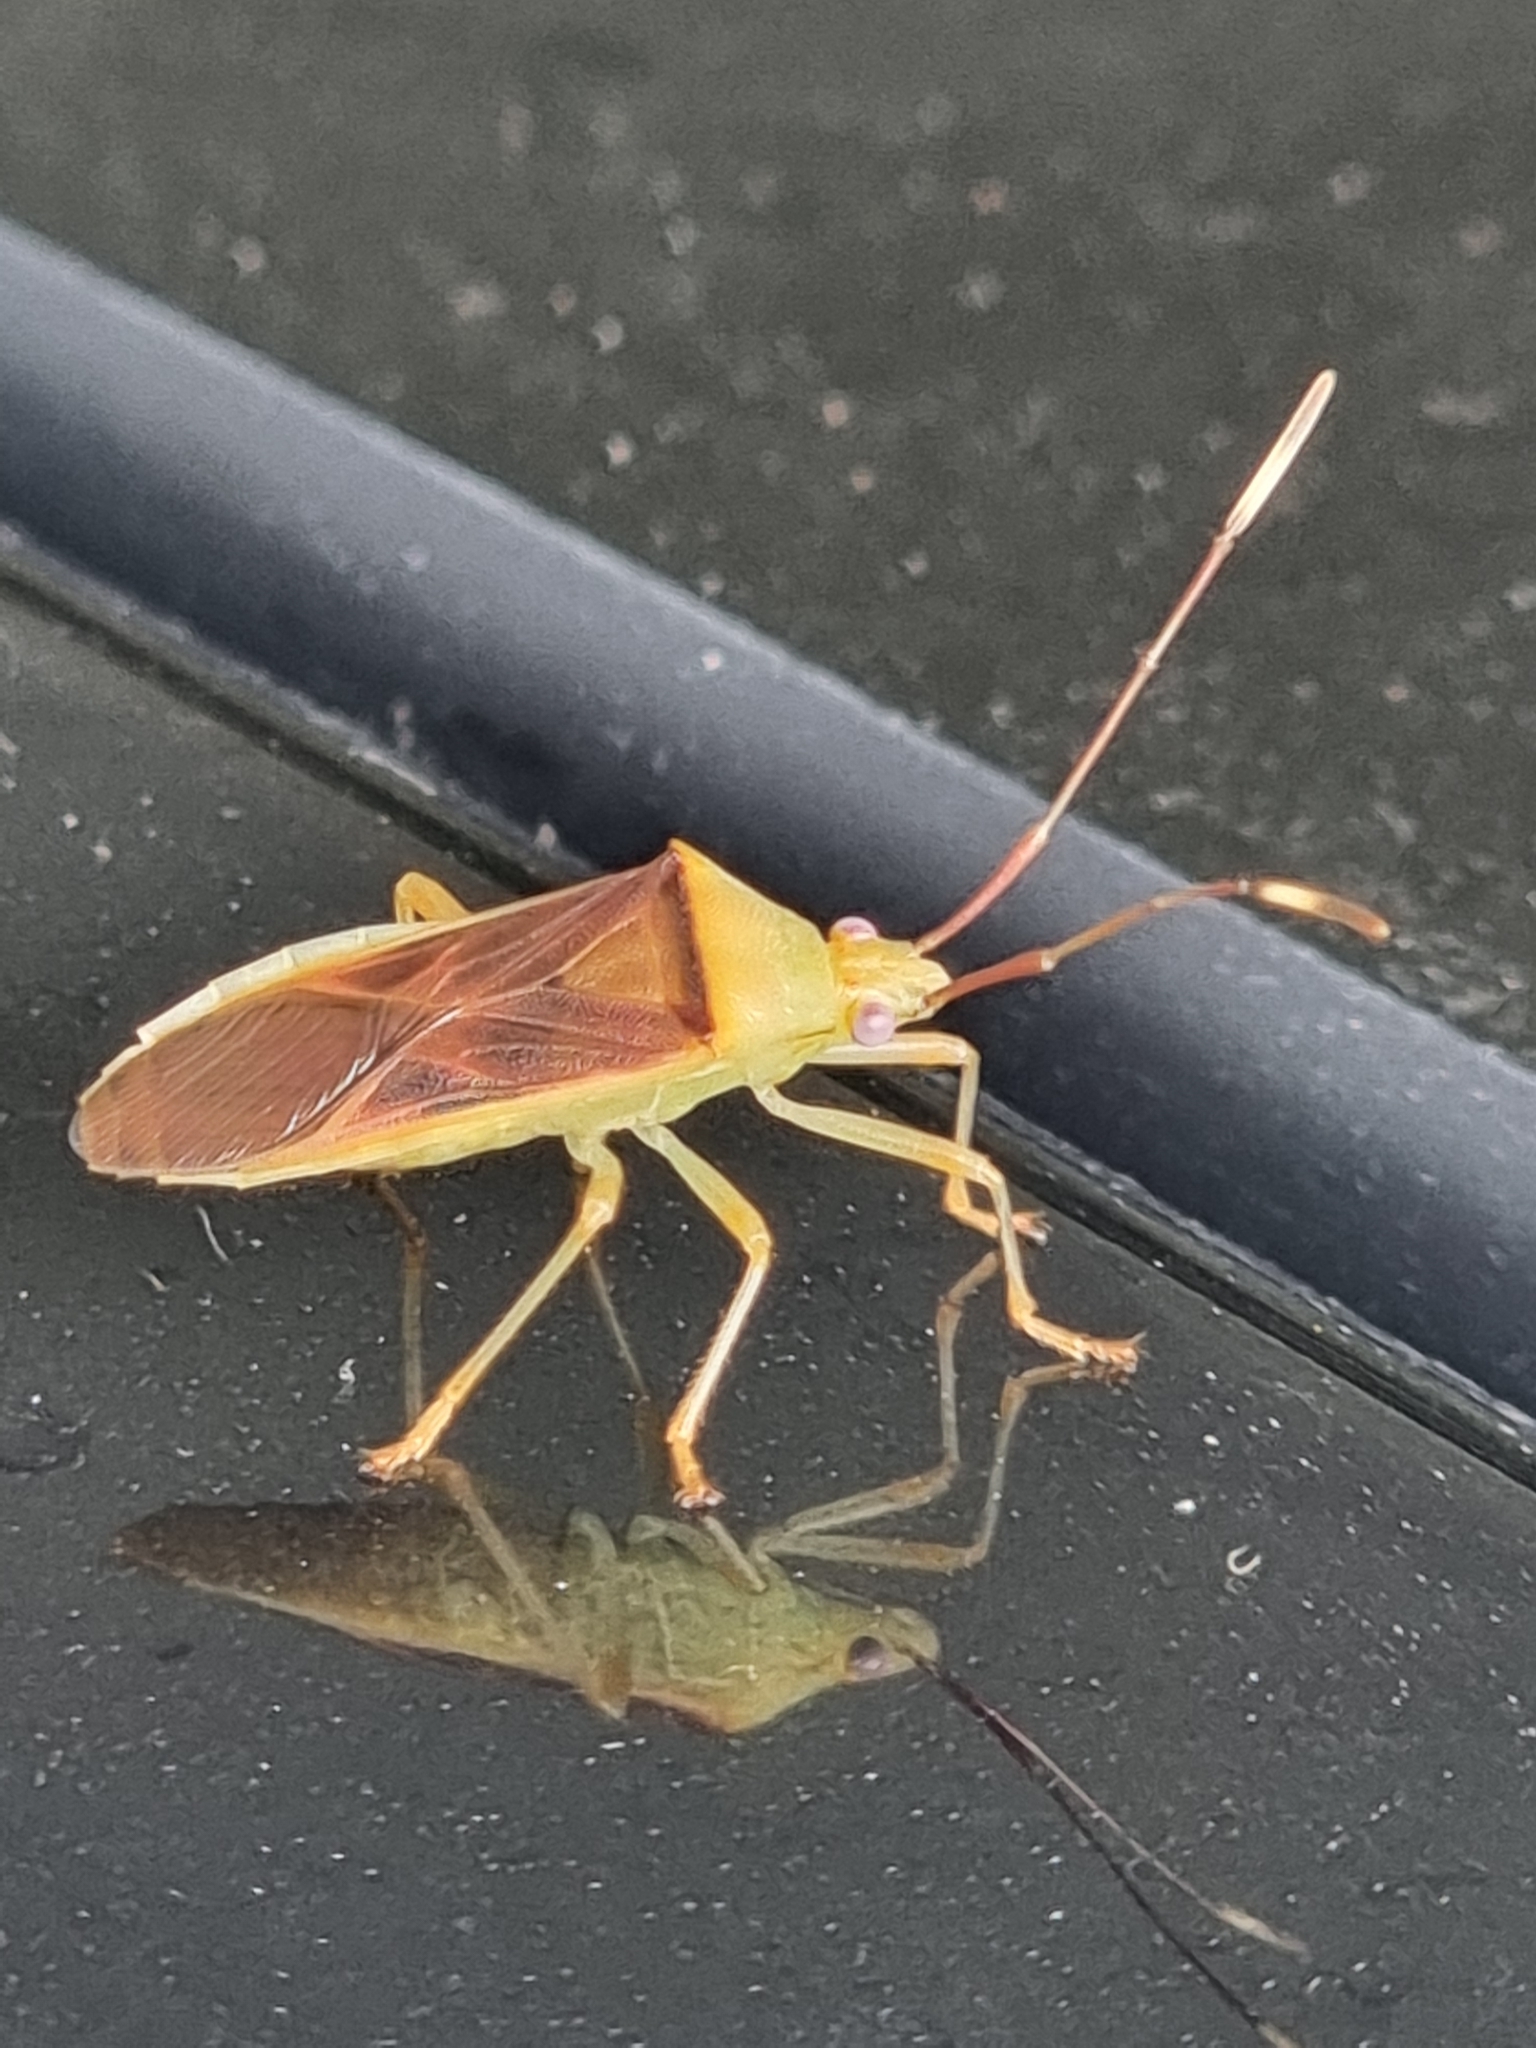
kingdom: Animalia
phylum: Arthropoda
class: Insecta
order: Hemiptera
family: Coreidae
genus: Amblypelta
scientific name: Amblypelta lutescens
